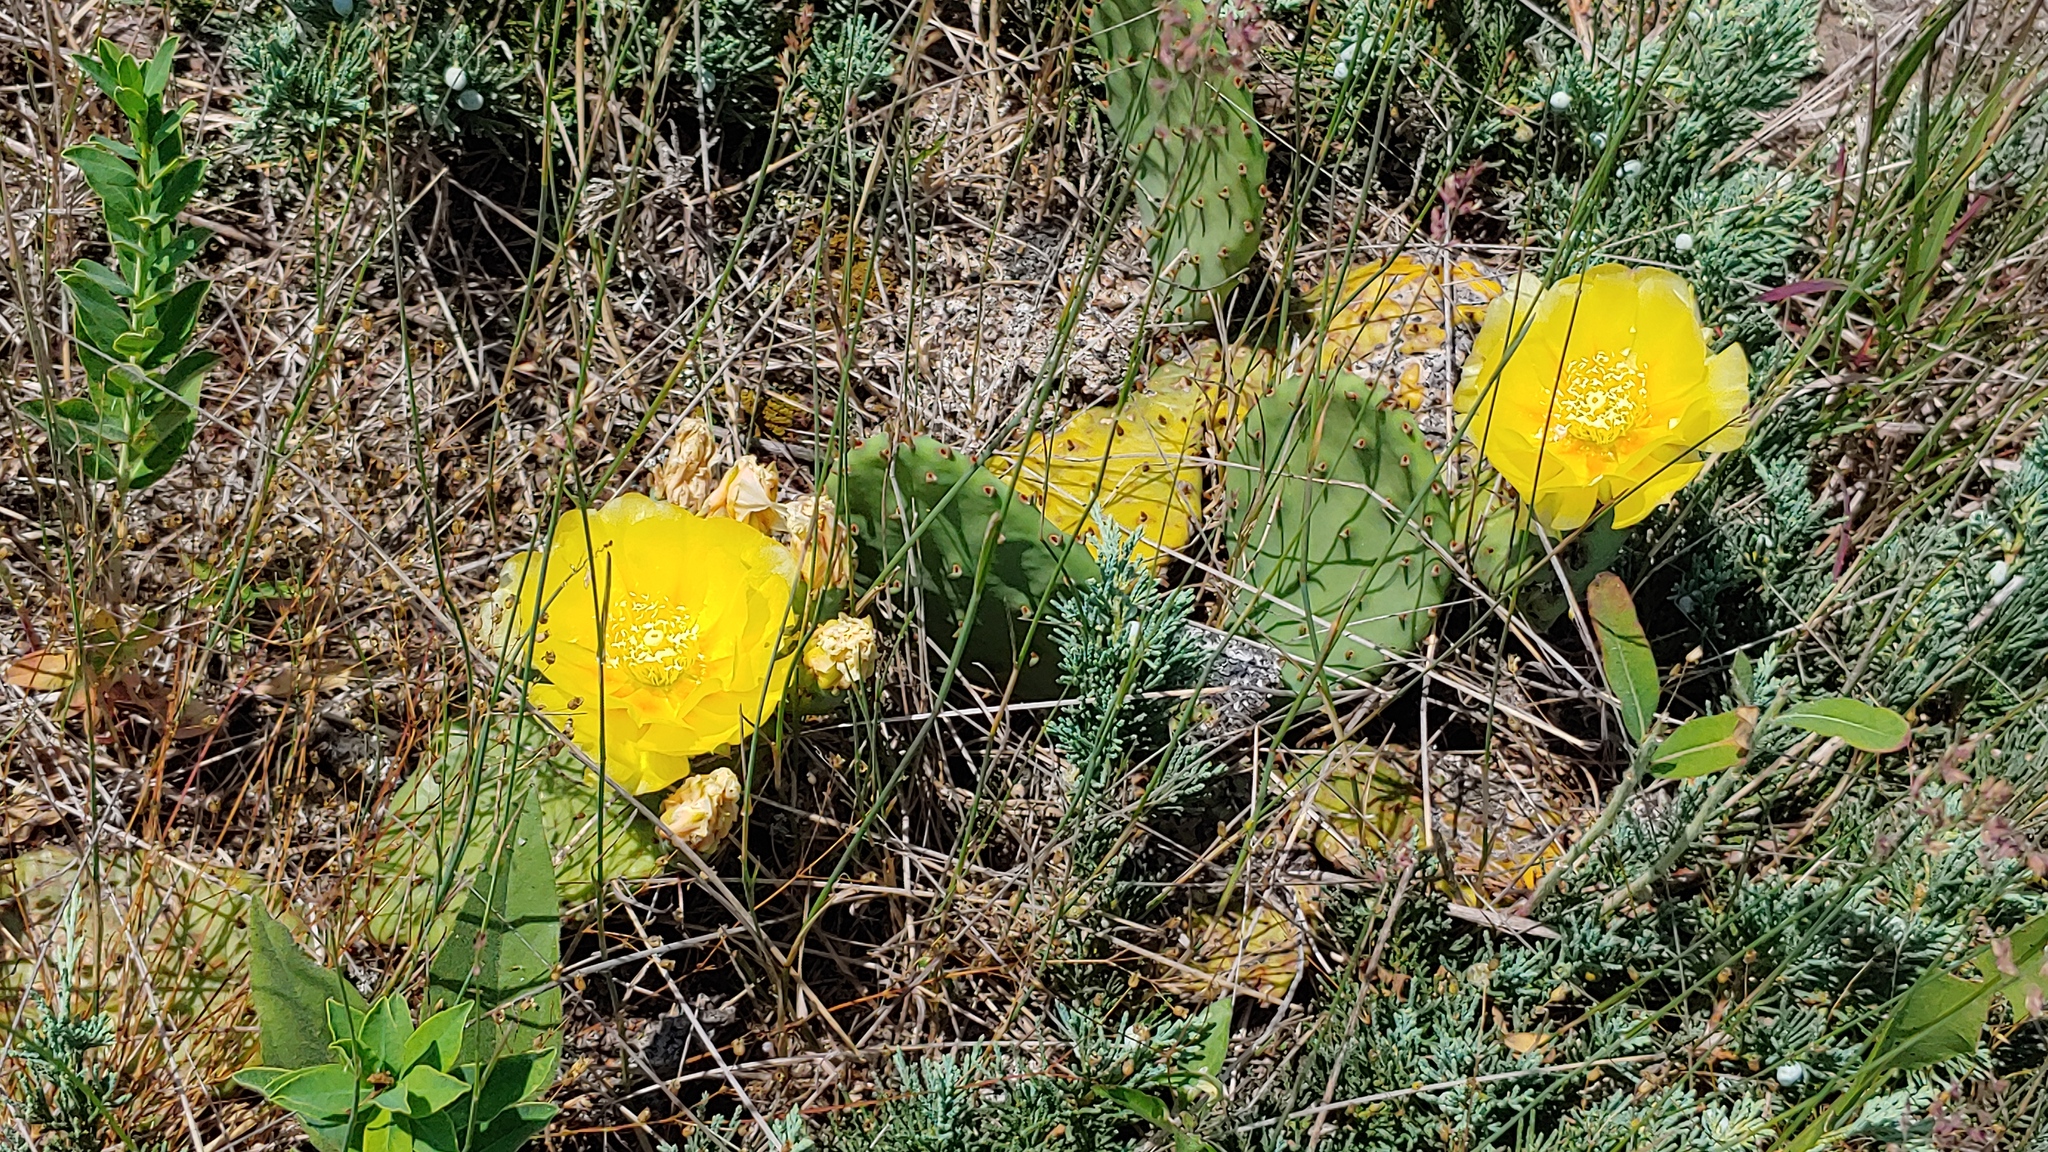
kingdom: Plantae
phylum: Tracheophyta
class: Magnoliopsida
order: Caryophyllales
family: Cactaceae
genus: Opuntia
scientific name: Opuntia macrorhiza
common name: Grassland pricklypear
